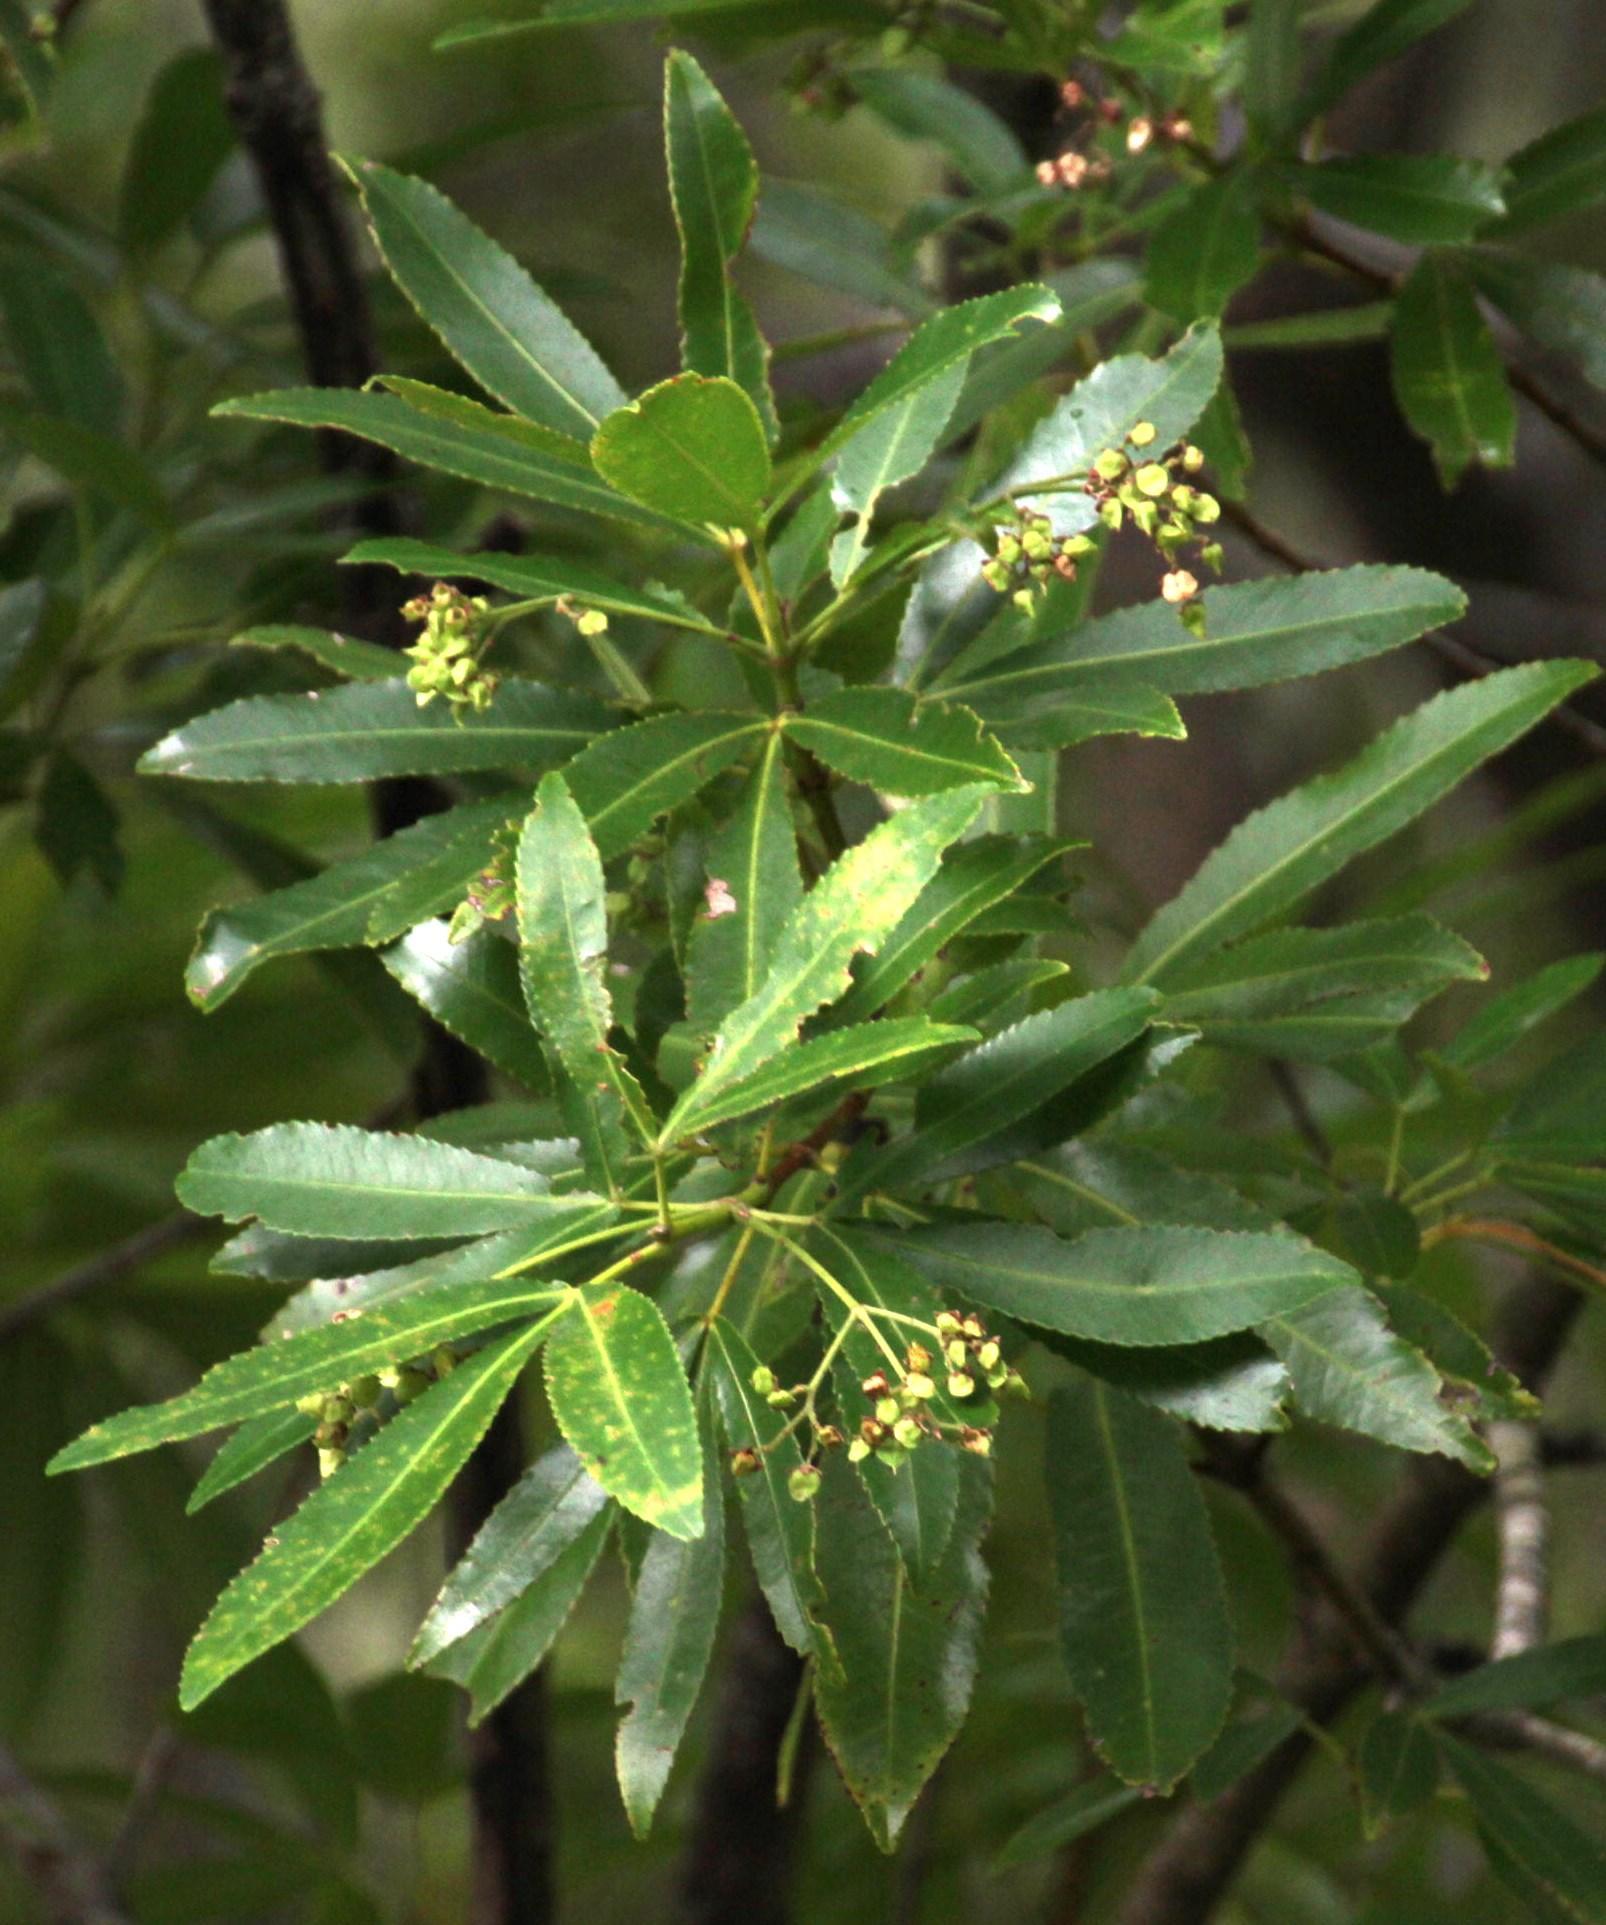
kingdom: Plantae
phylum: Tracheophyta
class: Magnoliopsida
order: Oxalidales
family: Cunoniaceae
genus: Platylophus
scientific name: Platylophus trifoliatus
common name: White alder
